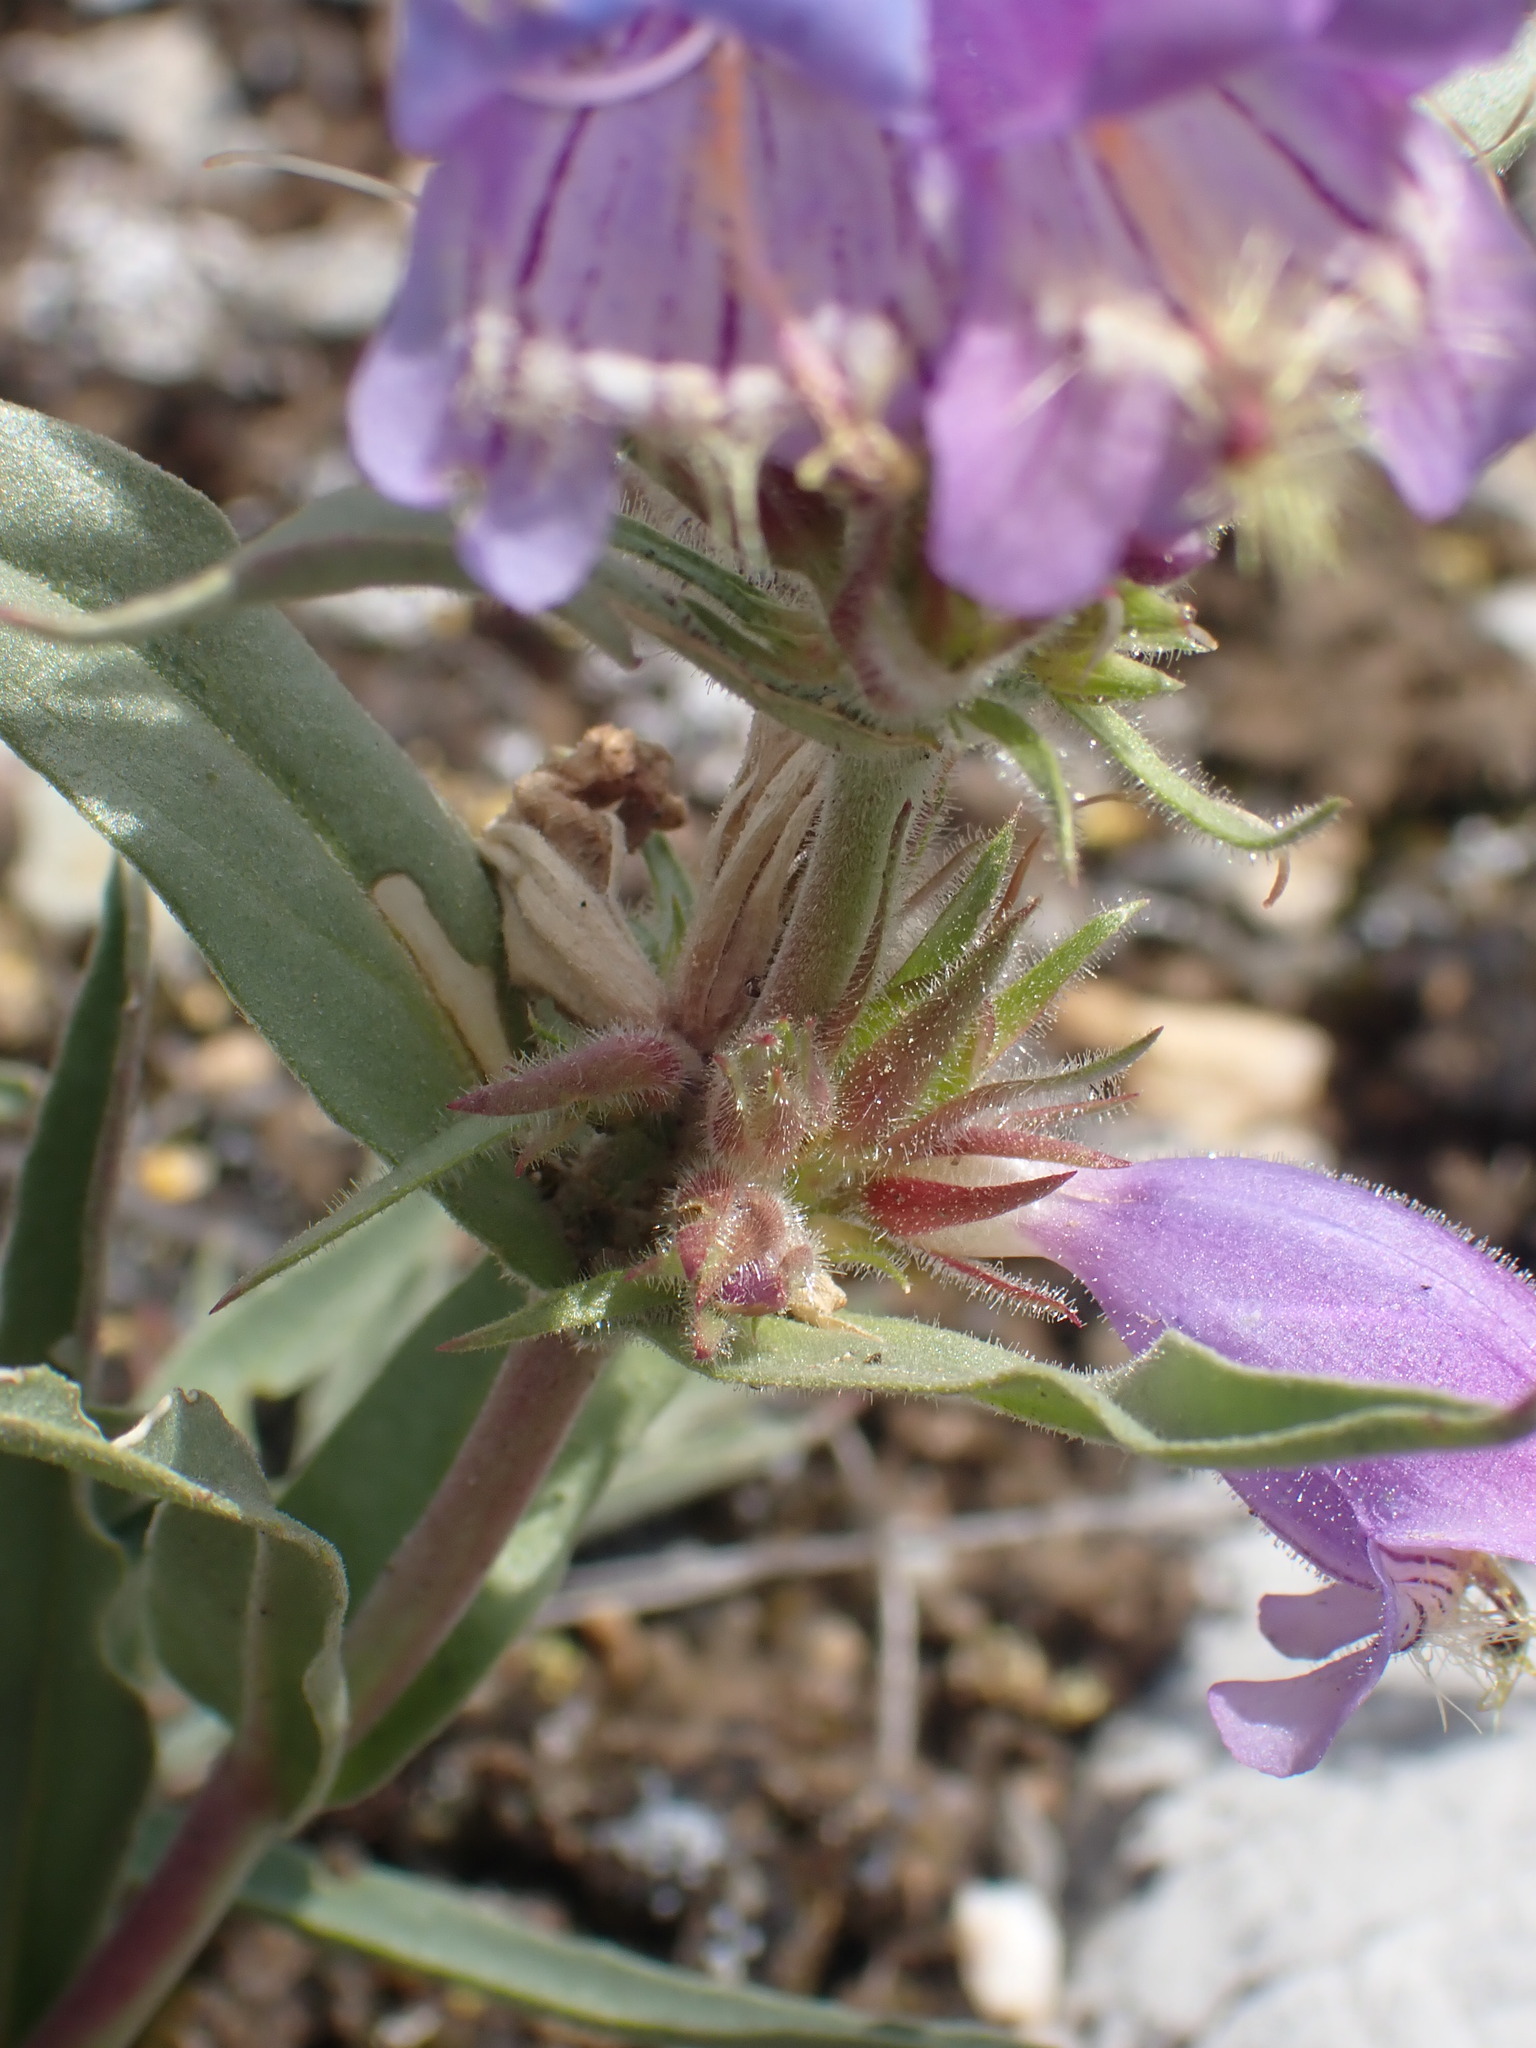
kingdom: Plantae
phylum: Tracheophyta
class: Magnoliopsida
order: Lamiales
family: Plantaginaceae
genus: Penstemon
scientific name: Penstemon eriantherus
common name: Crested beardtongue
